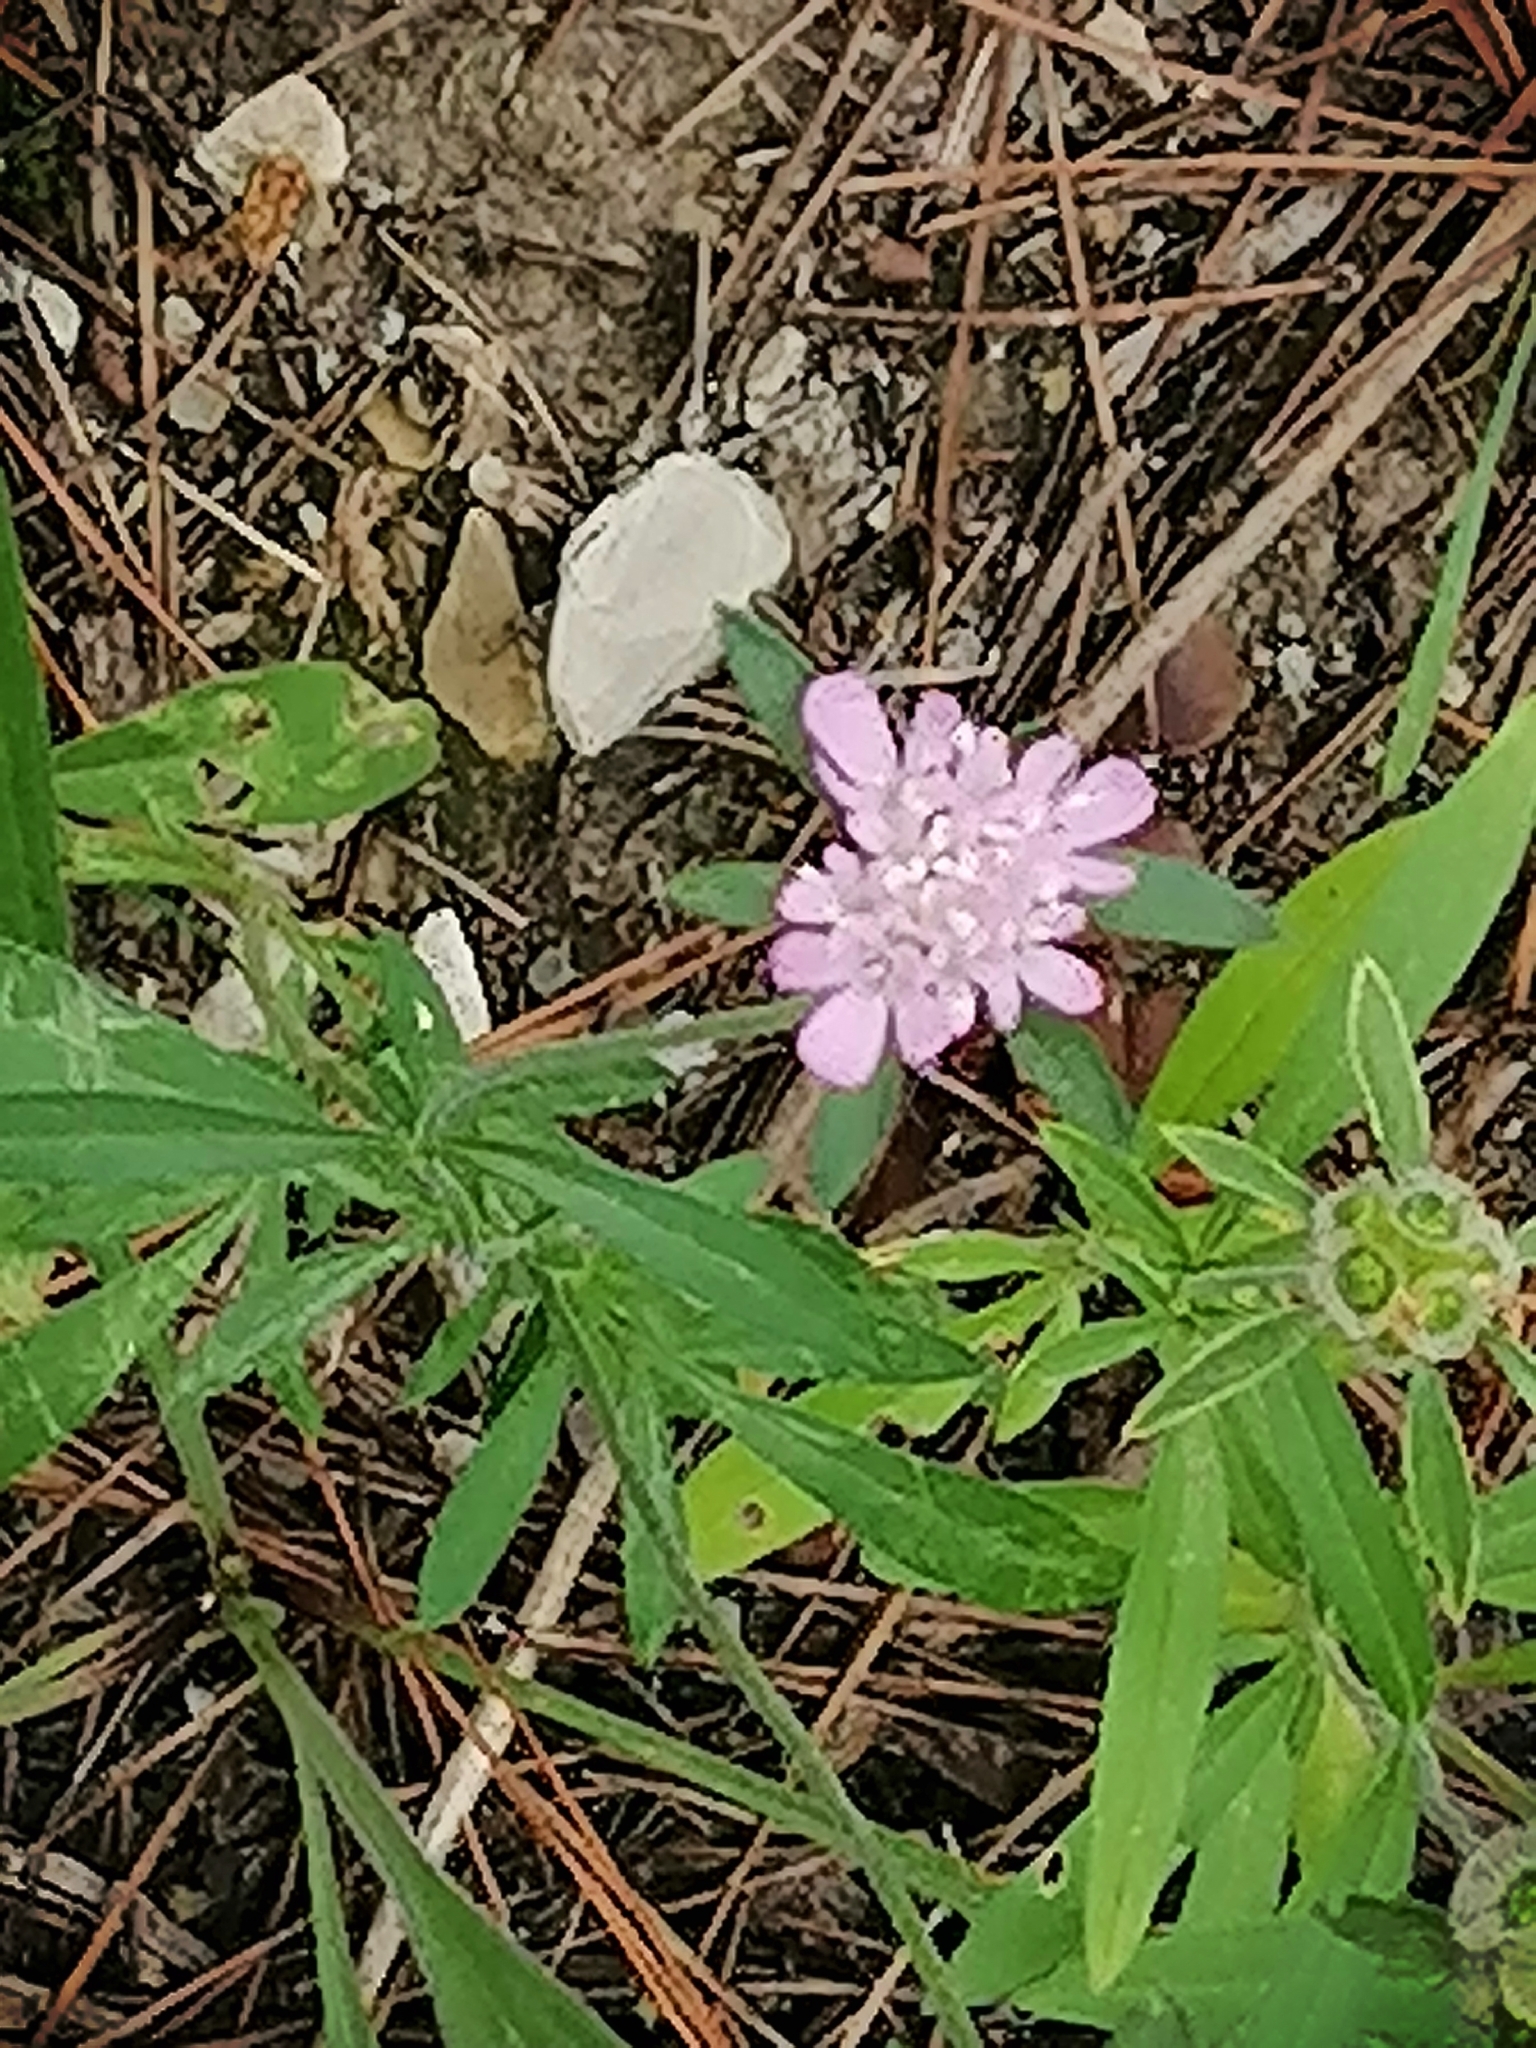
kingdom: Plantae
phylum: Tracheophyta
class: Magnoliopsida
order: Dipsacales
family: Caprifoliaceae
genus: Lomelosia
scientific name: Lomelosia micrantha
